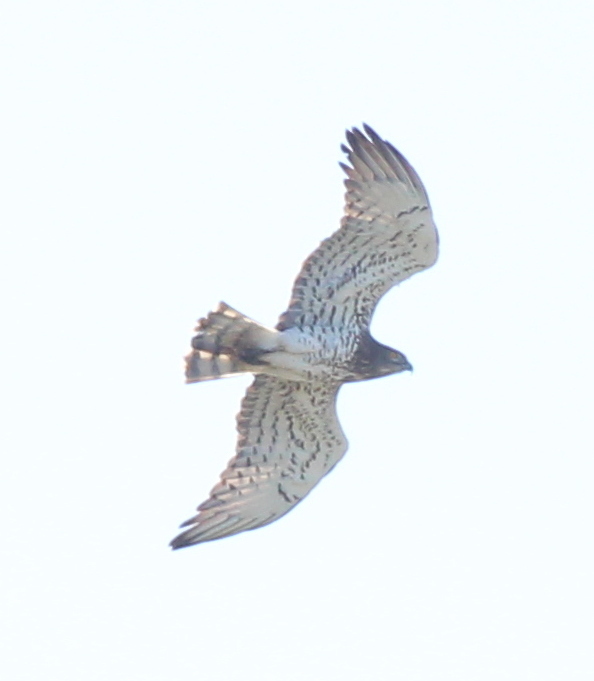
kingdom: Animalia
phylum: Chordata
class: Aves
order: Accipitriformes
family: Accipitridae
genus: Circaetus
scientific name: Circaetus gallicus
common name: Short-toed snake eagle
